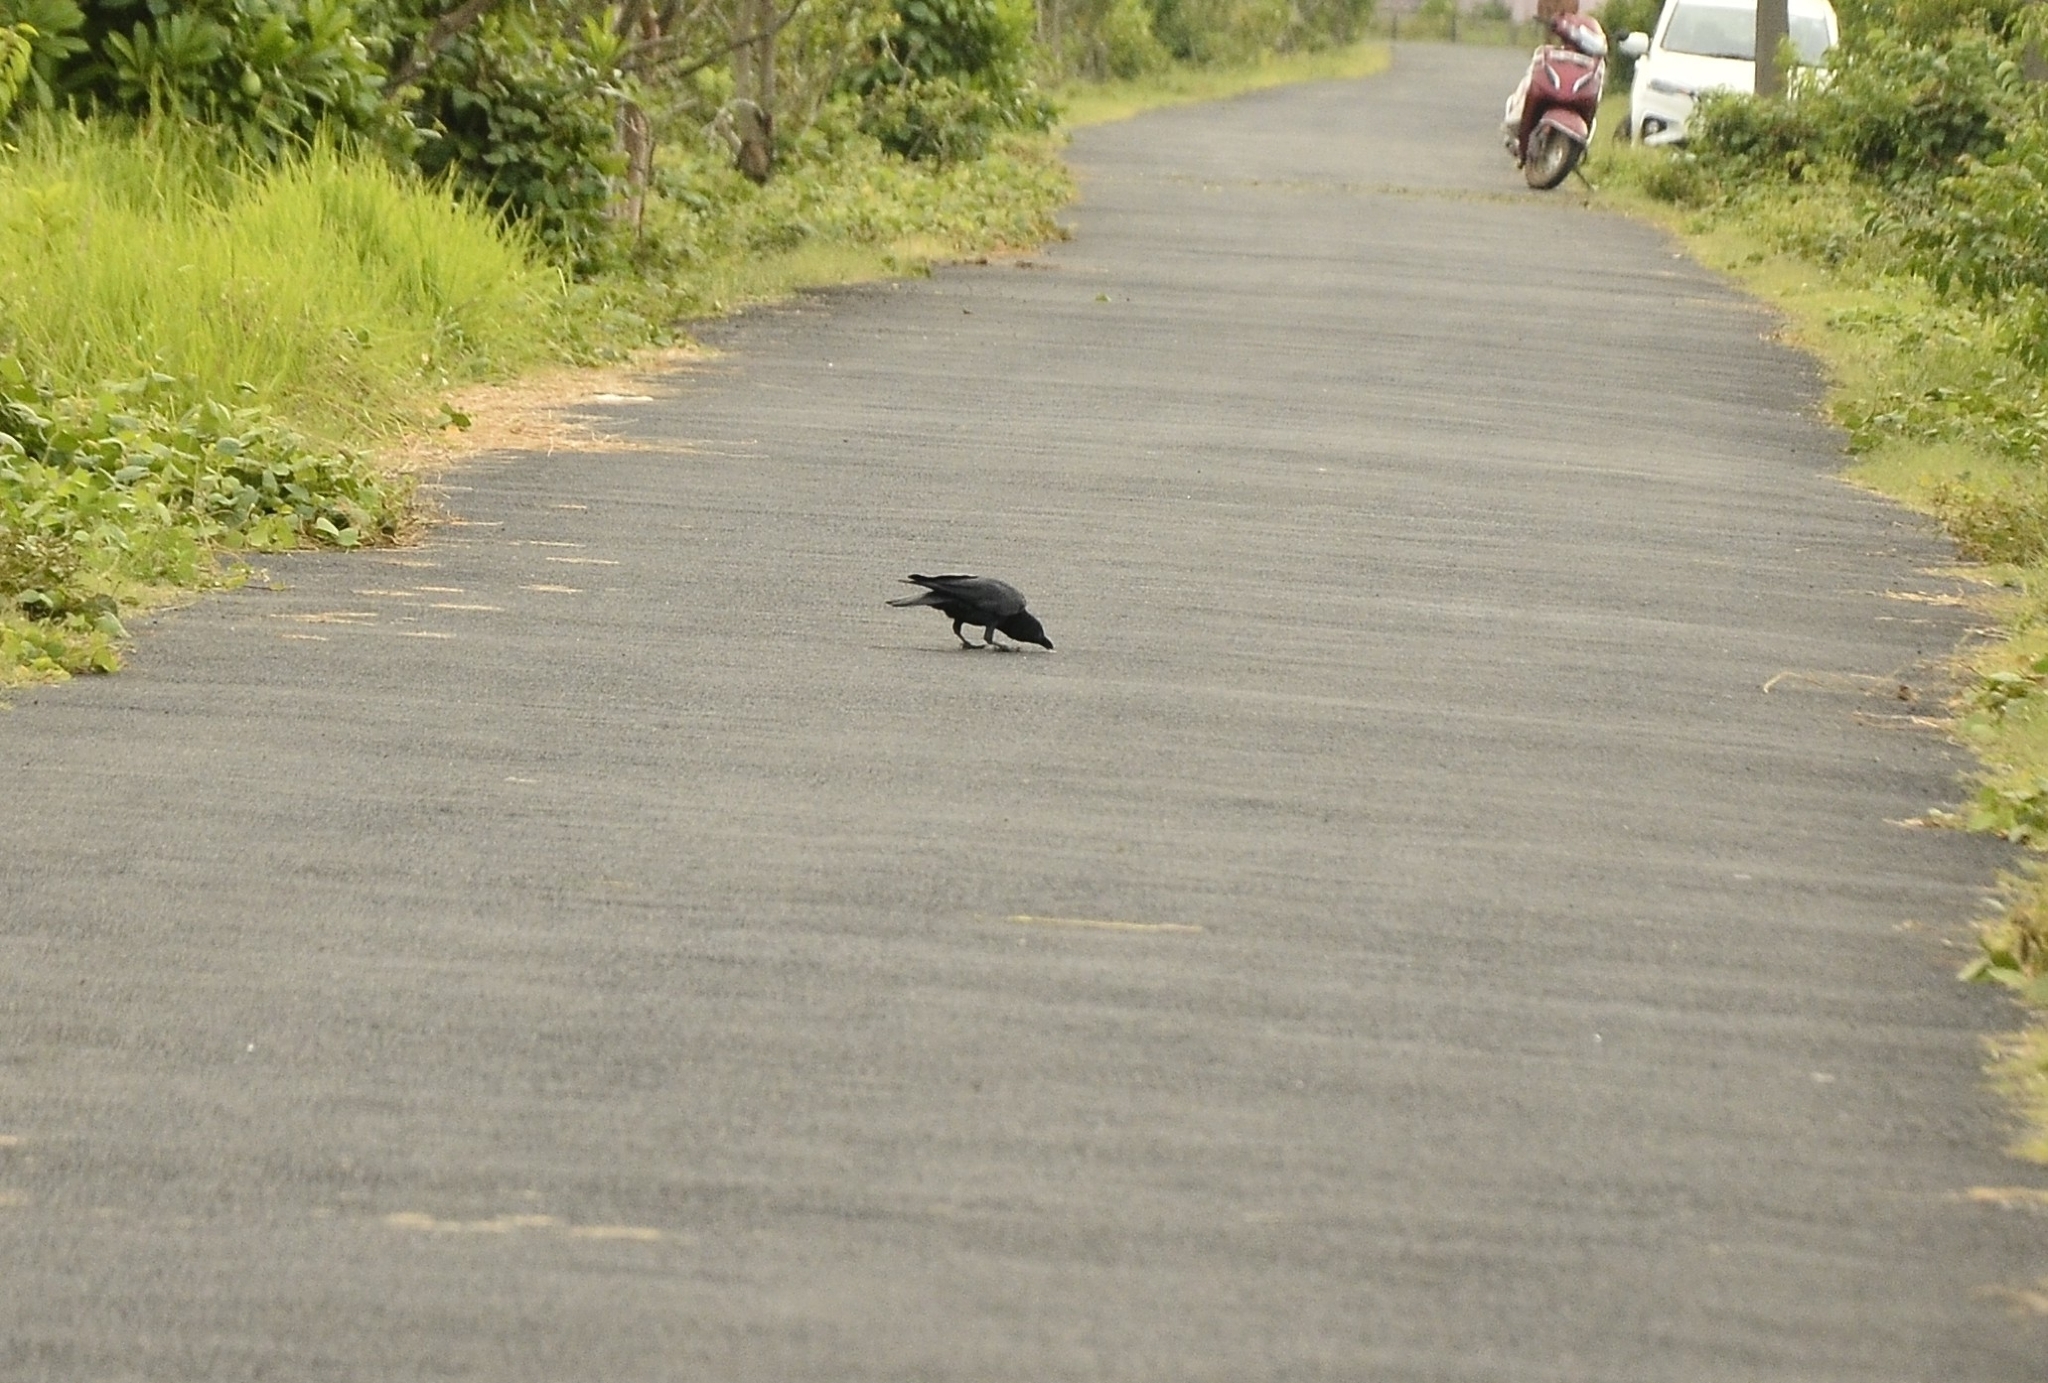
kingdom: Animalia
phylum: Chordata
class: Aves
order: Passeriformes
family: Corvidae
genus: Corvus
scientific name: Corvus macrorhynchos
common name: Large-billed crow
